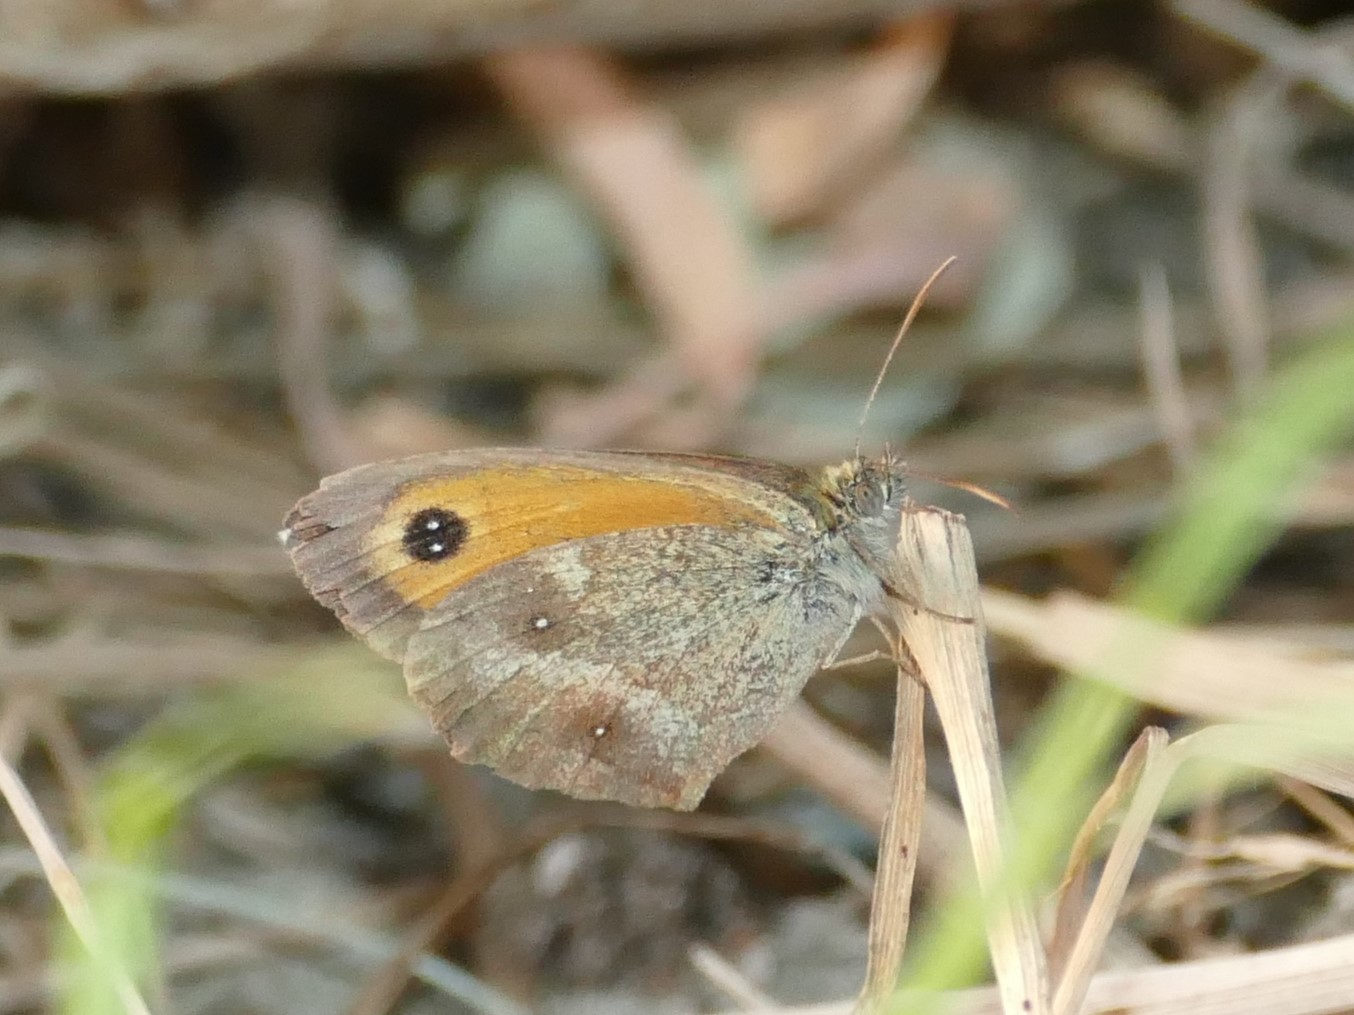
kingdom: Animalia
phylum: Arthropoda
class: Insecta
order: Lepidoptera
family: Nymphalidae
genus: Pyronia
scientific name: Pyronia tithonus
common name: Gatekeeper
